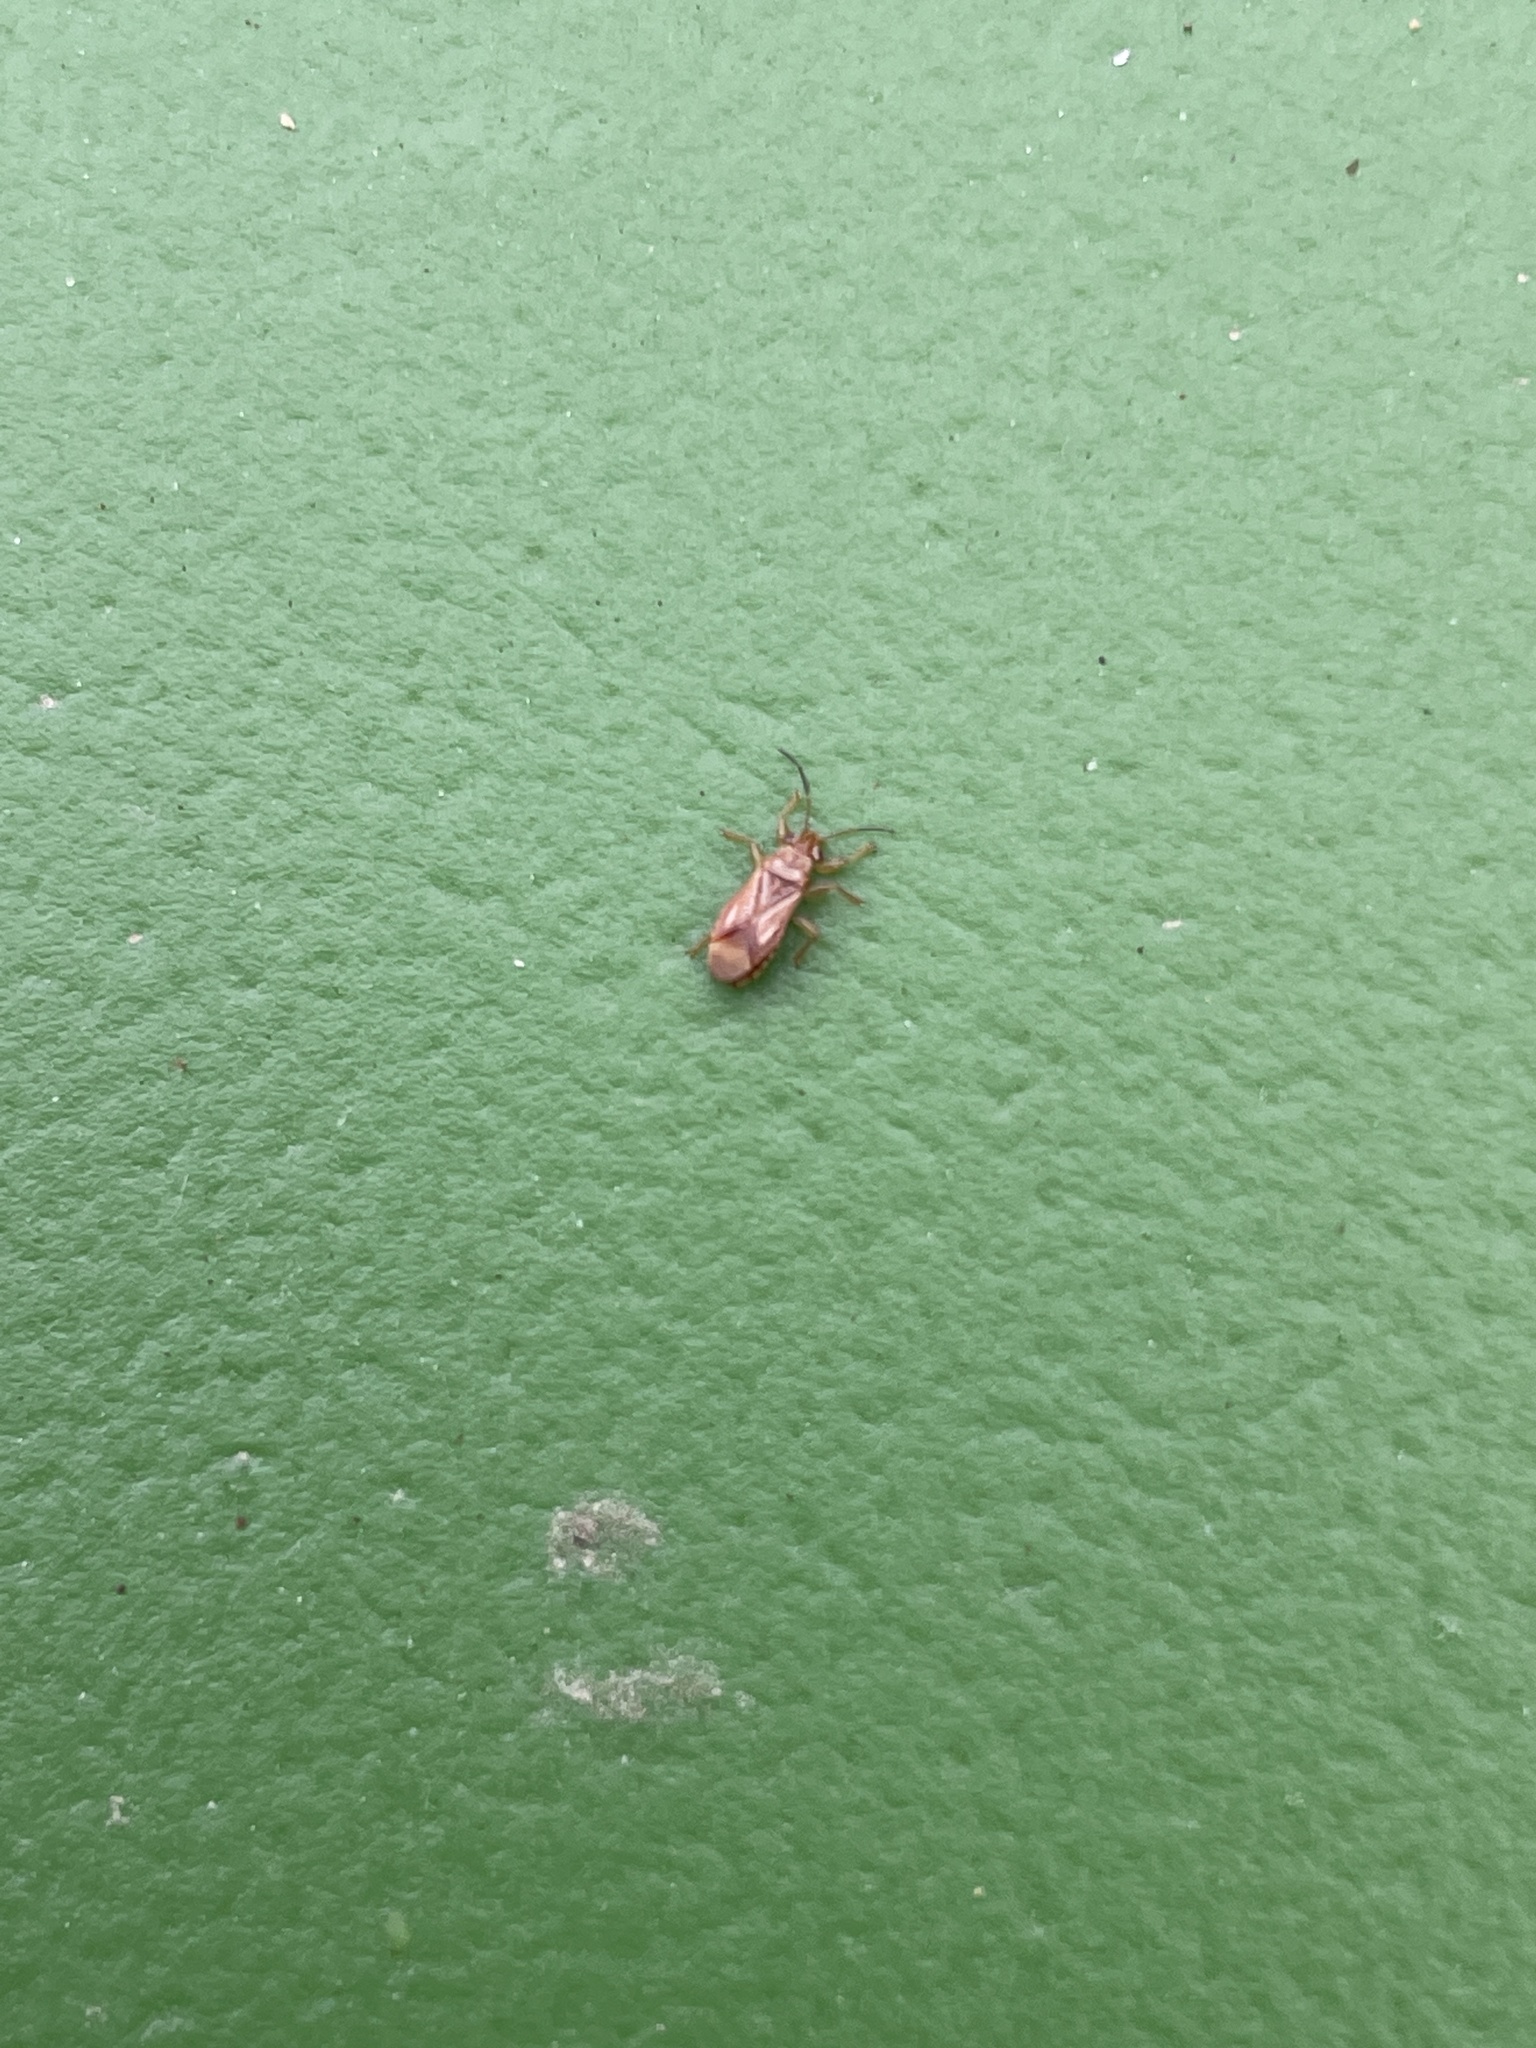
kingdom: Animalia
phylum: Arthropoda
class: Insecta
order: Hemiptera
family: Thaumastocoridae
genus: Thaumastocoris
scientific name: Thaumastocoris peregrinus
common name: Bronze bug
